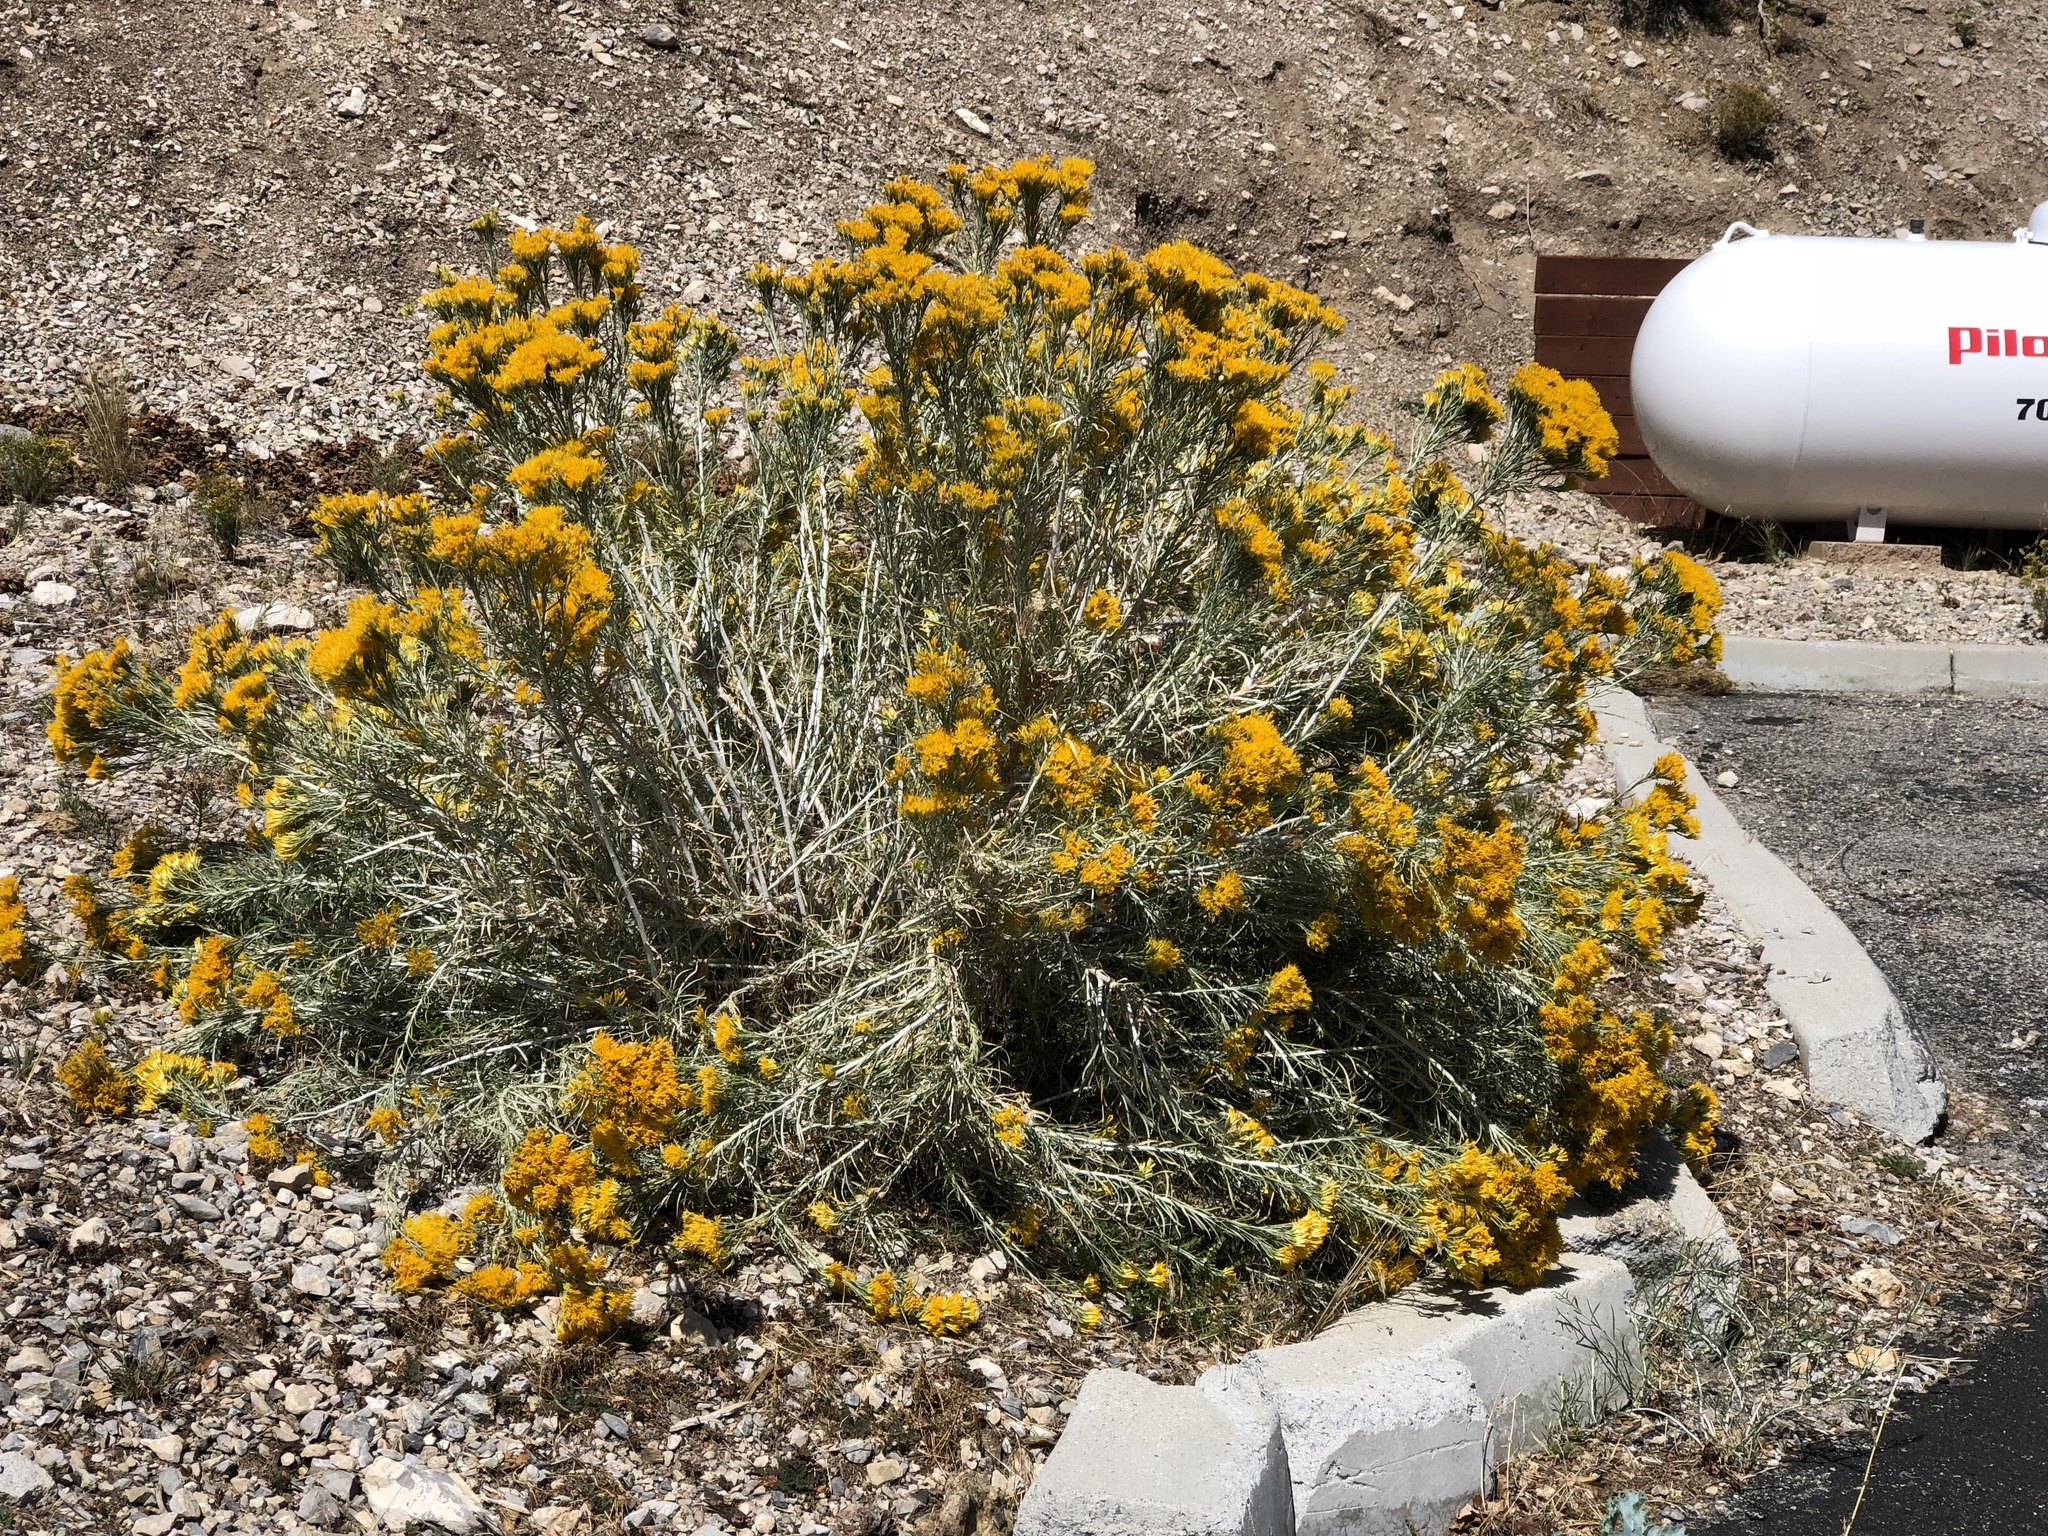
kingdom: Plantae
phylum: Tracheophyta
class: Magnoliopsida
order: Asterales
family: Asteraceae
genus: Ericameria
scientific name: Ericameria nauseosa
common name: Rubber rabbitbrush
